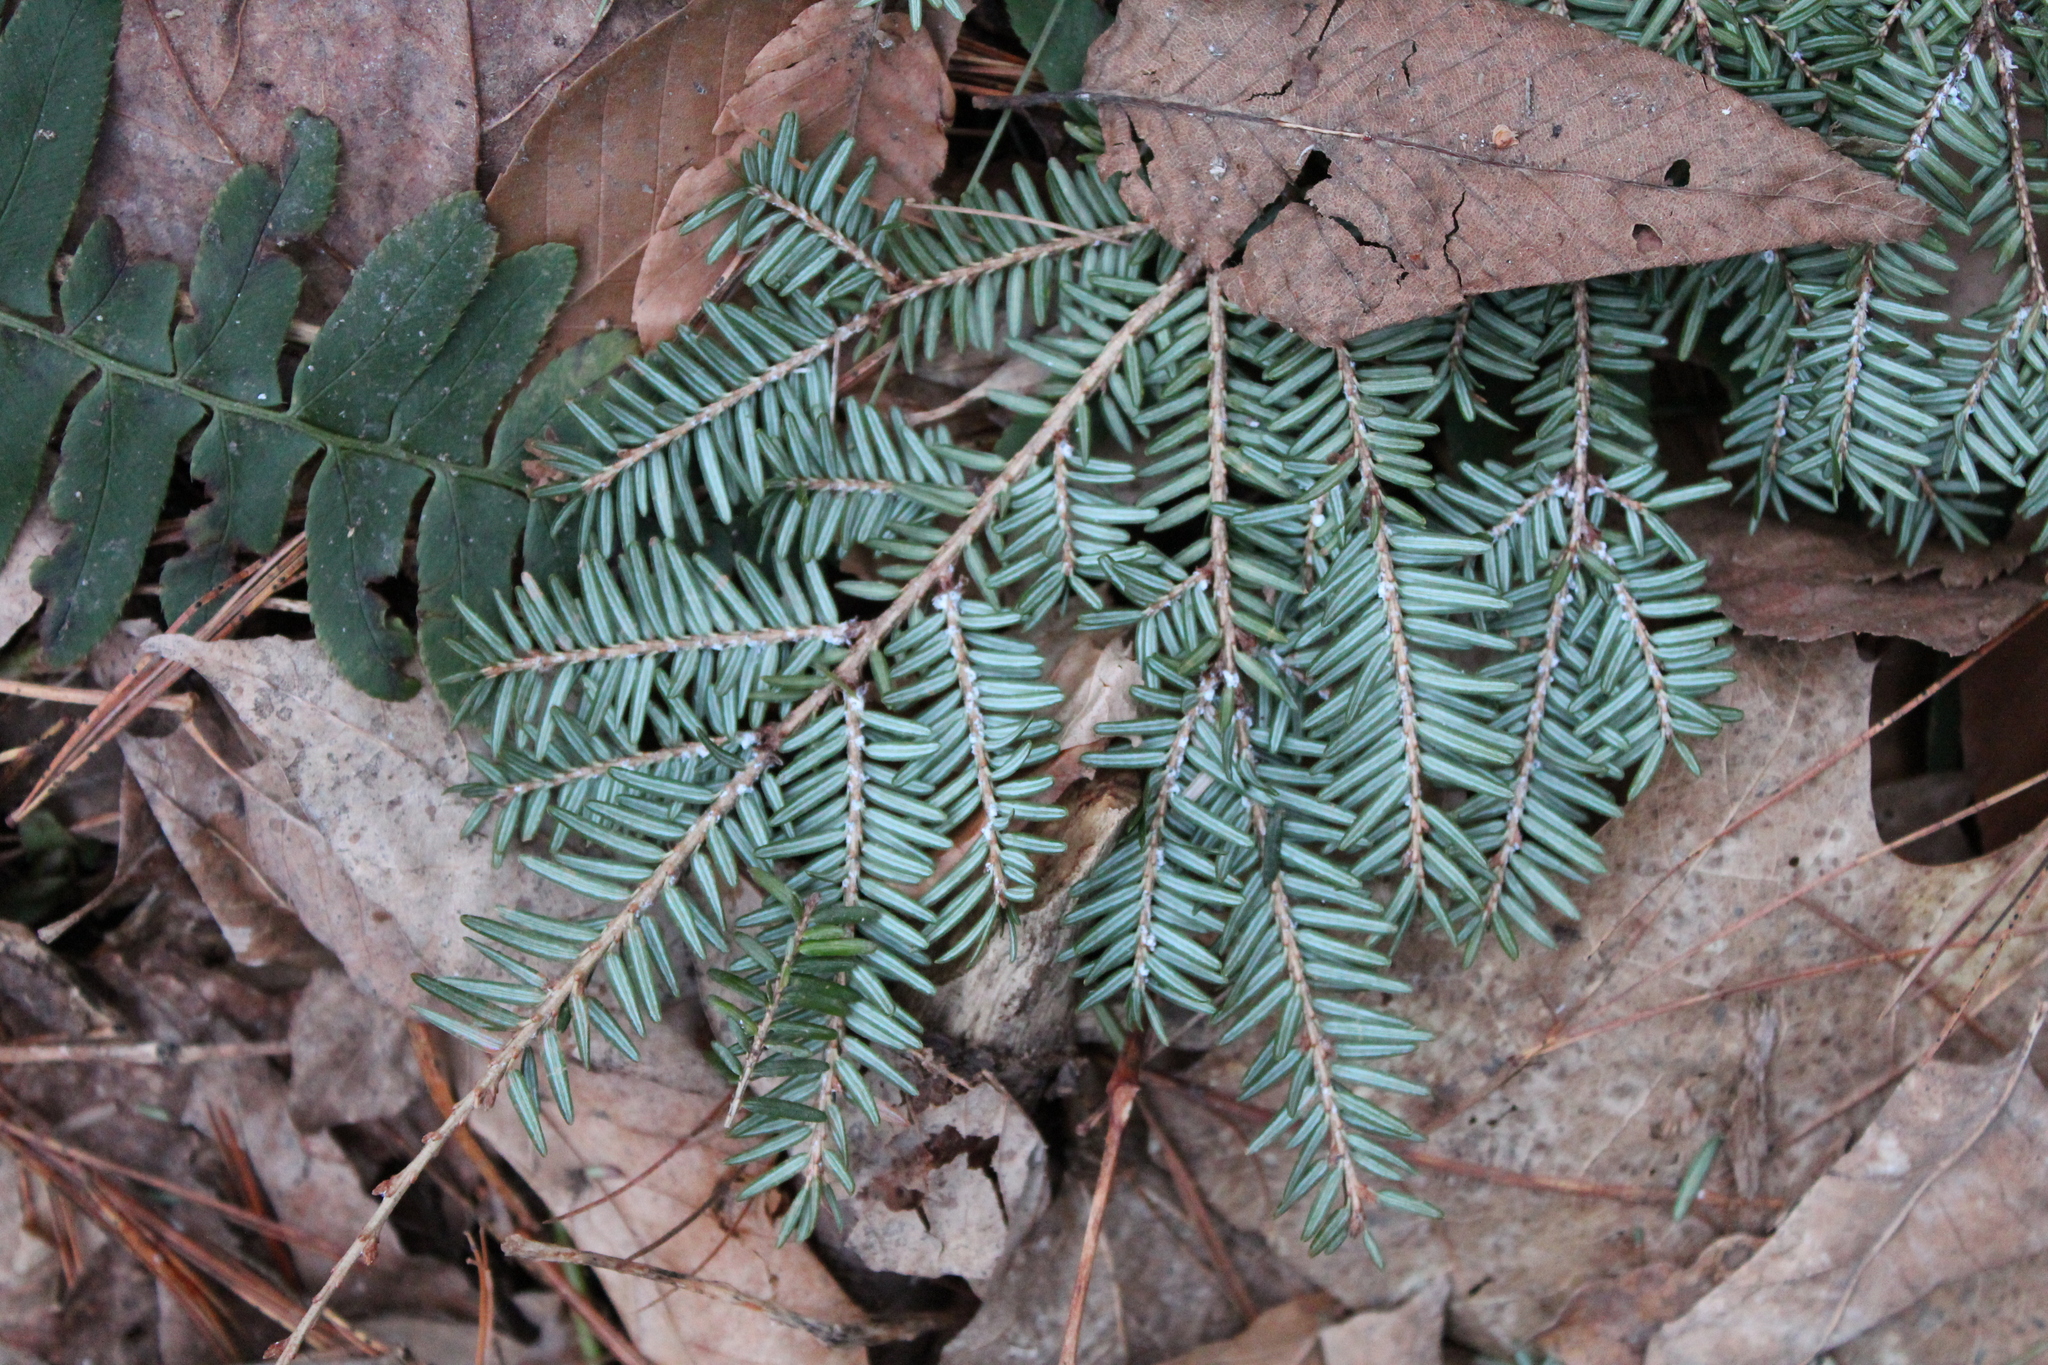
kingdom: Plantae
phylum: Tracheophyta
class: Pinopsida
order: Pinales
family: Pinaceae
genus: Tsuga
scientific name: Tsuga canadensis
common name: Eastern hemlock
